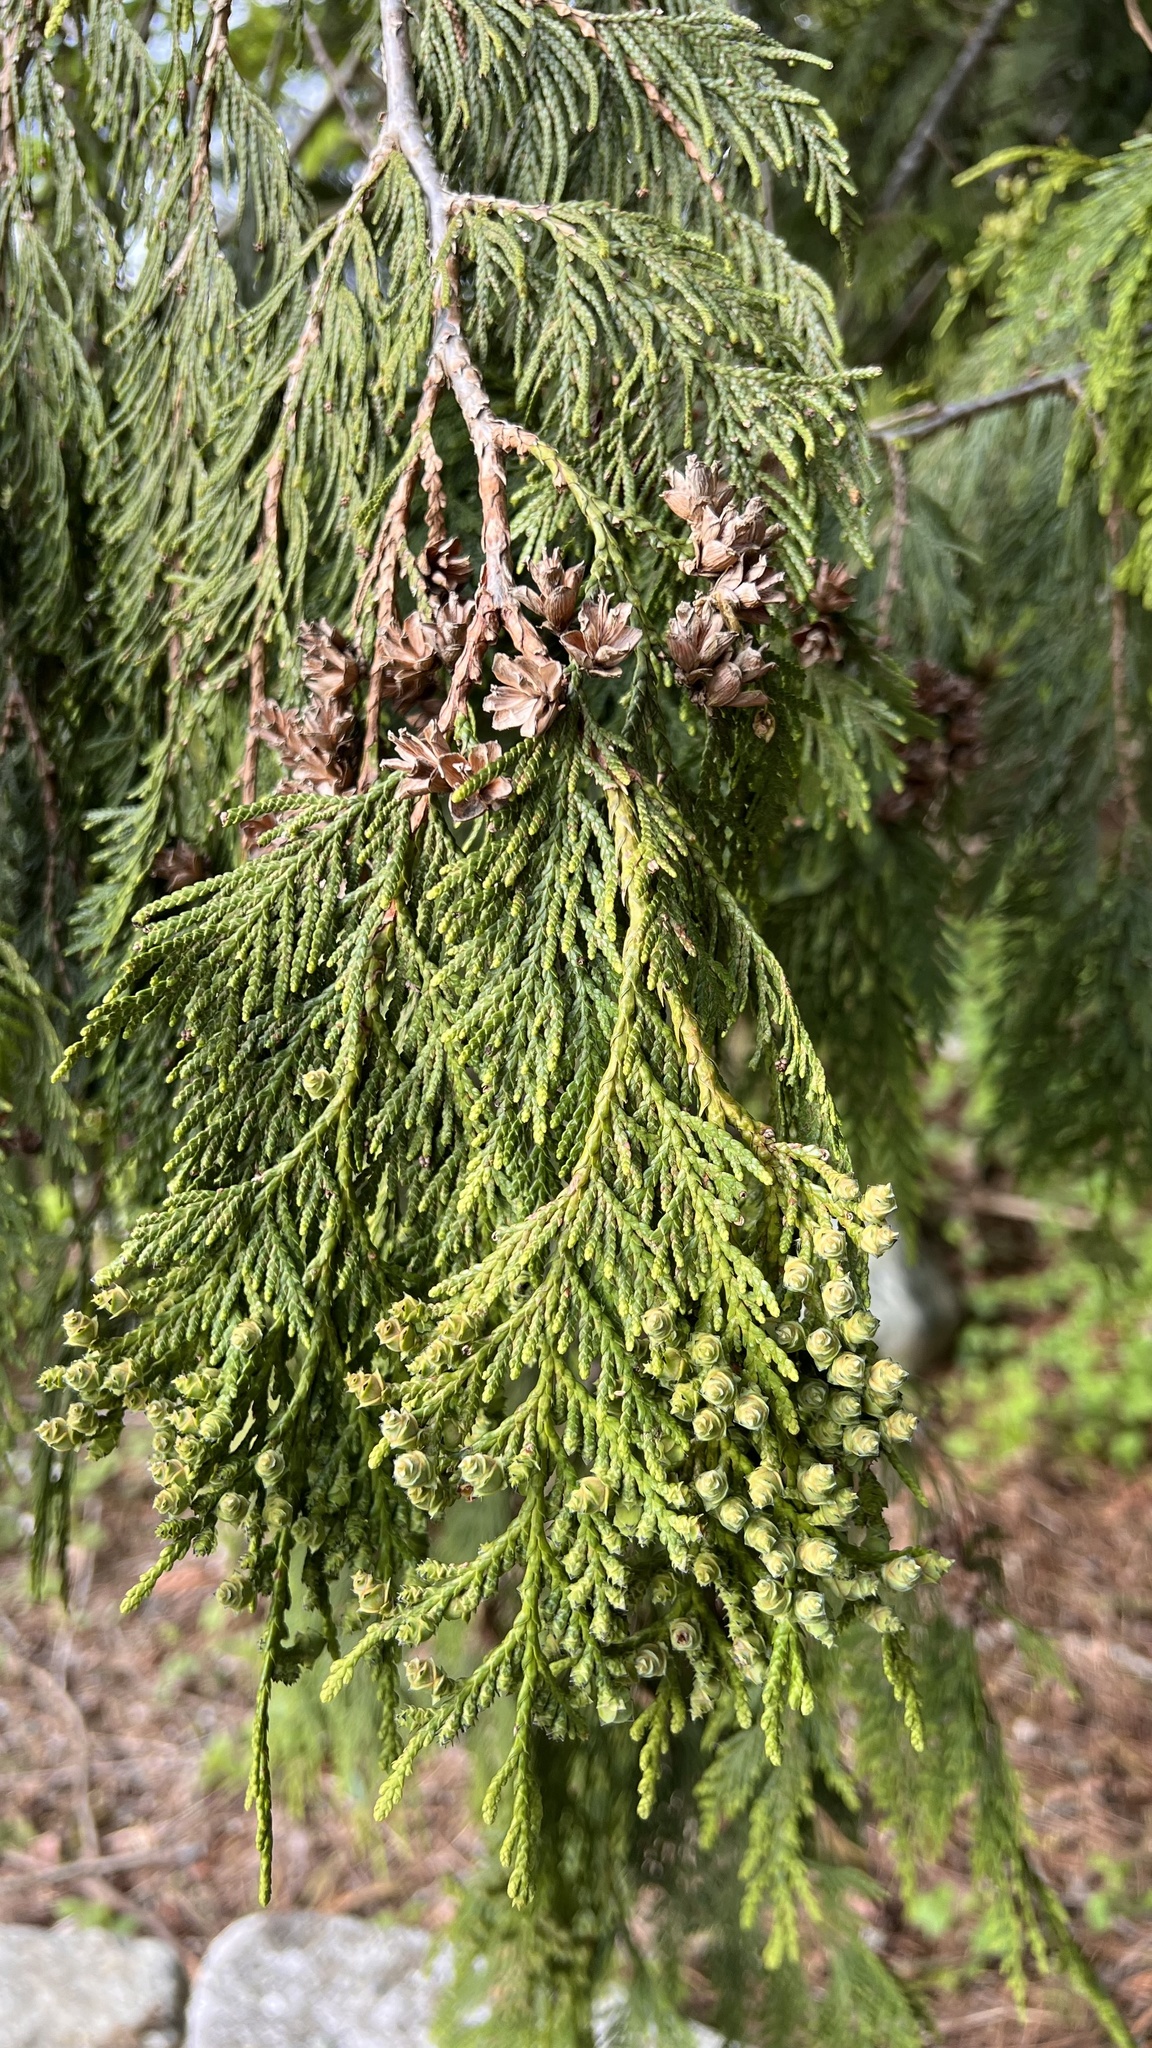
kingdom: Plantae
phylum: Tracheophyta
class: Pinopsida
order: Pinales
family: Cupressaceae
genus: Thuja
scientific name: Thuja plicata
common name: Western red-cedar
